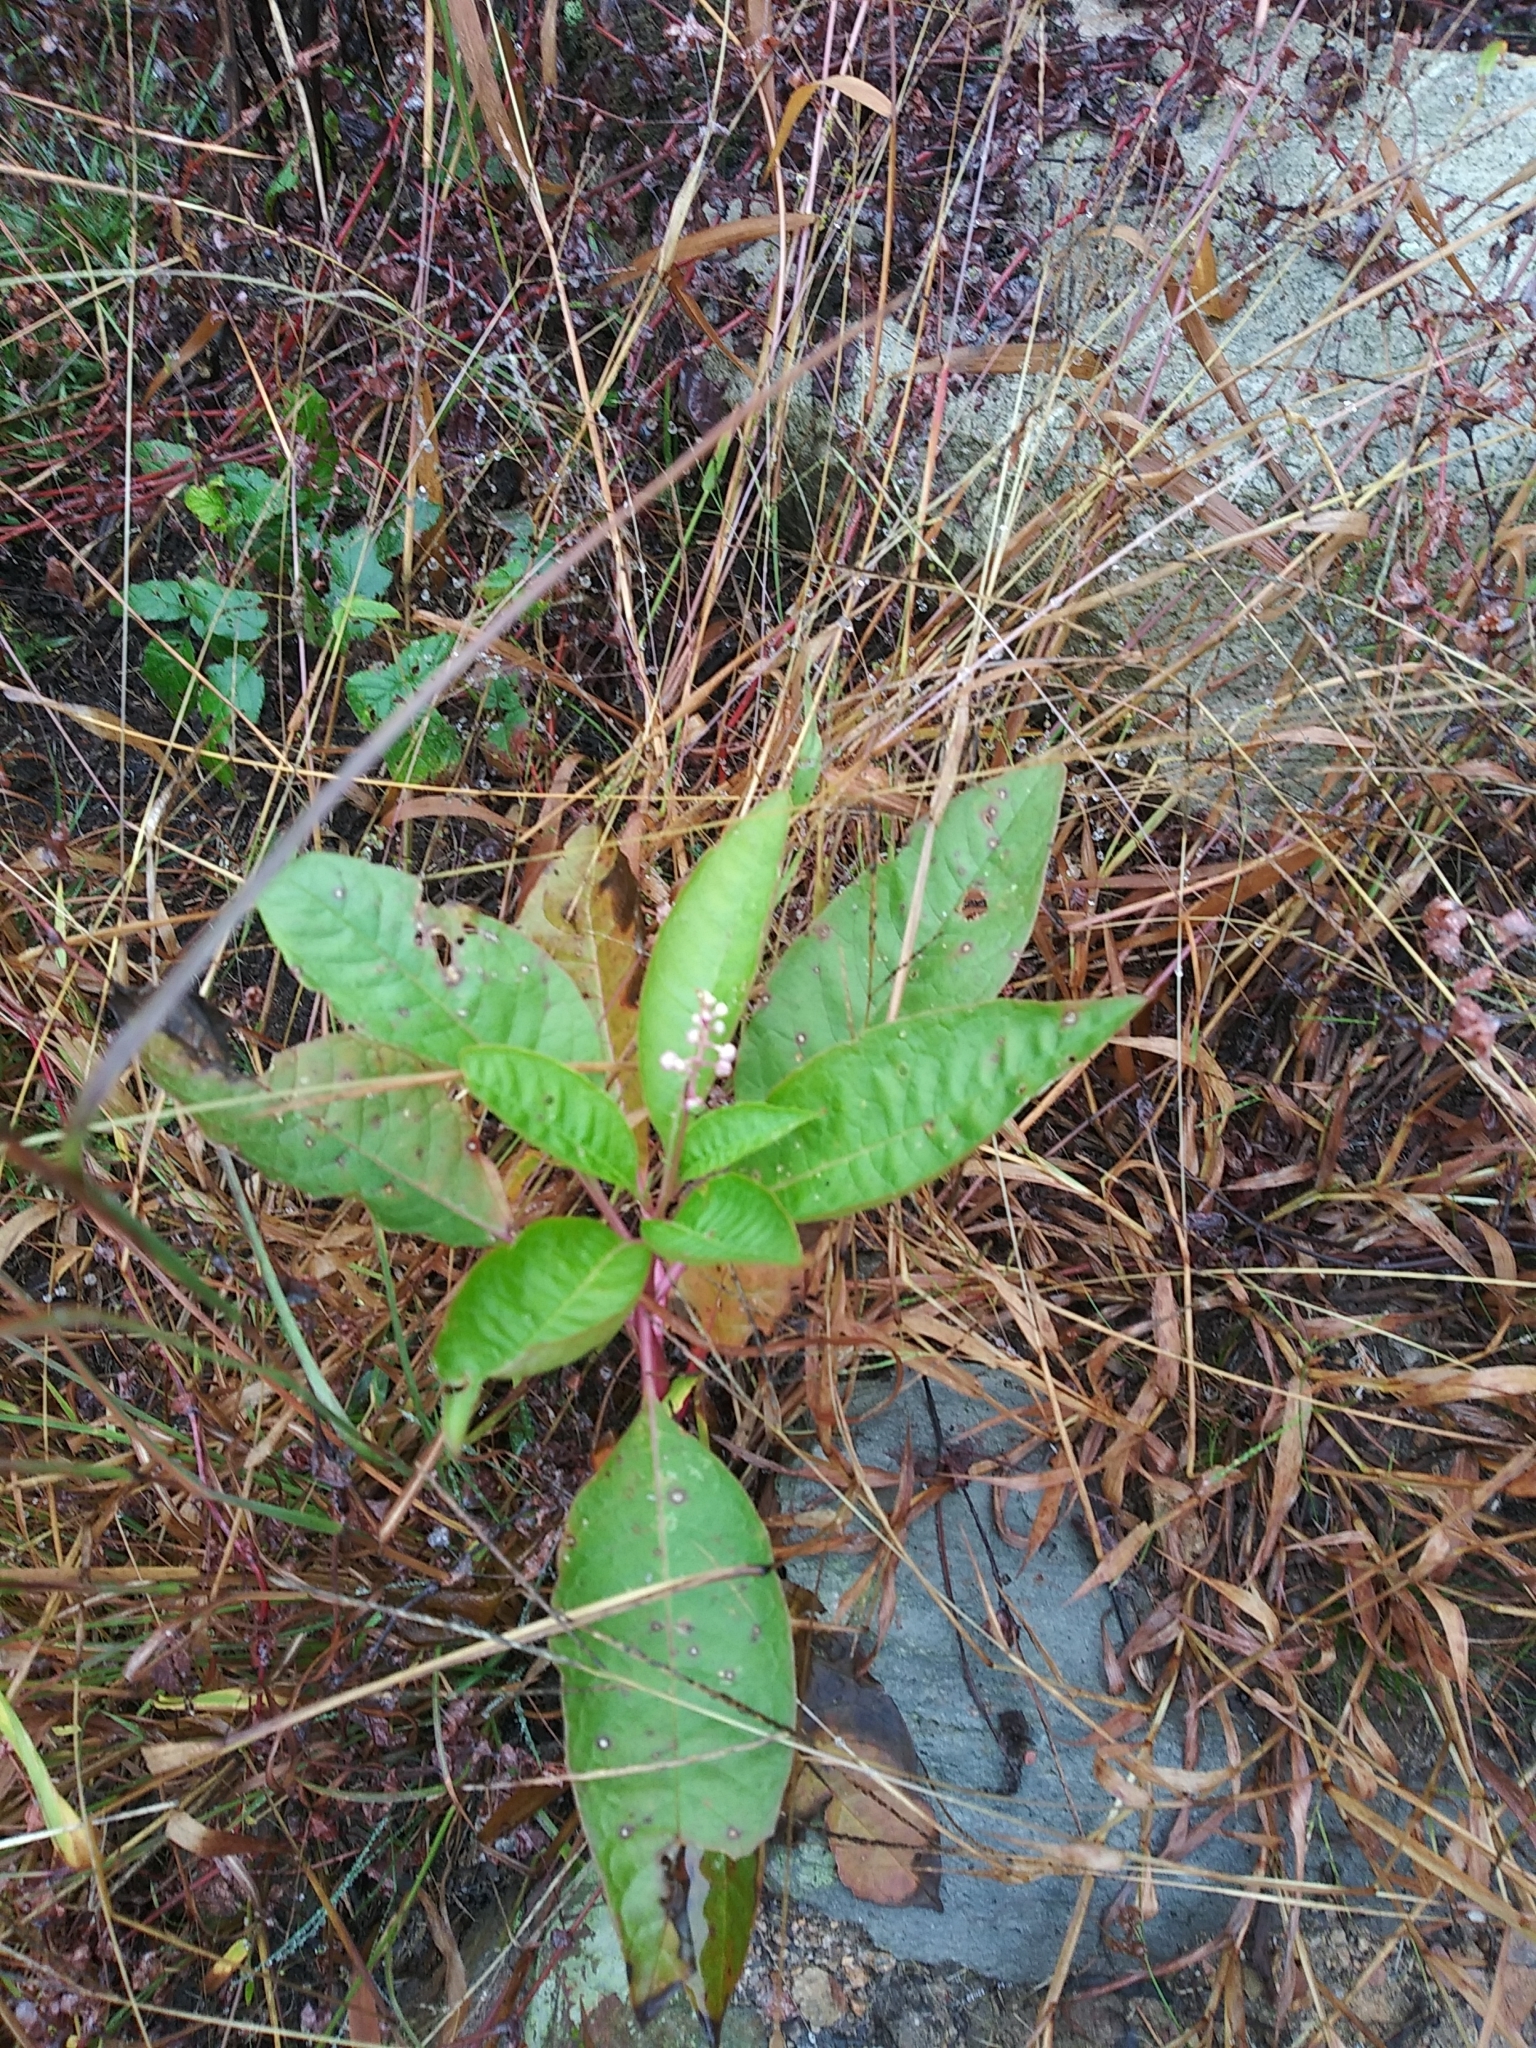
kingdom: Plantae
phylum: Tracheophyta
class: Magnoliopsida
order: Caryophyllales
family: Phytolaccaceae
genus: Phytolacca
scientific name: Phytolacca americana
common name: American pokeweed
